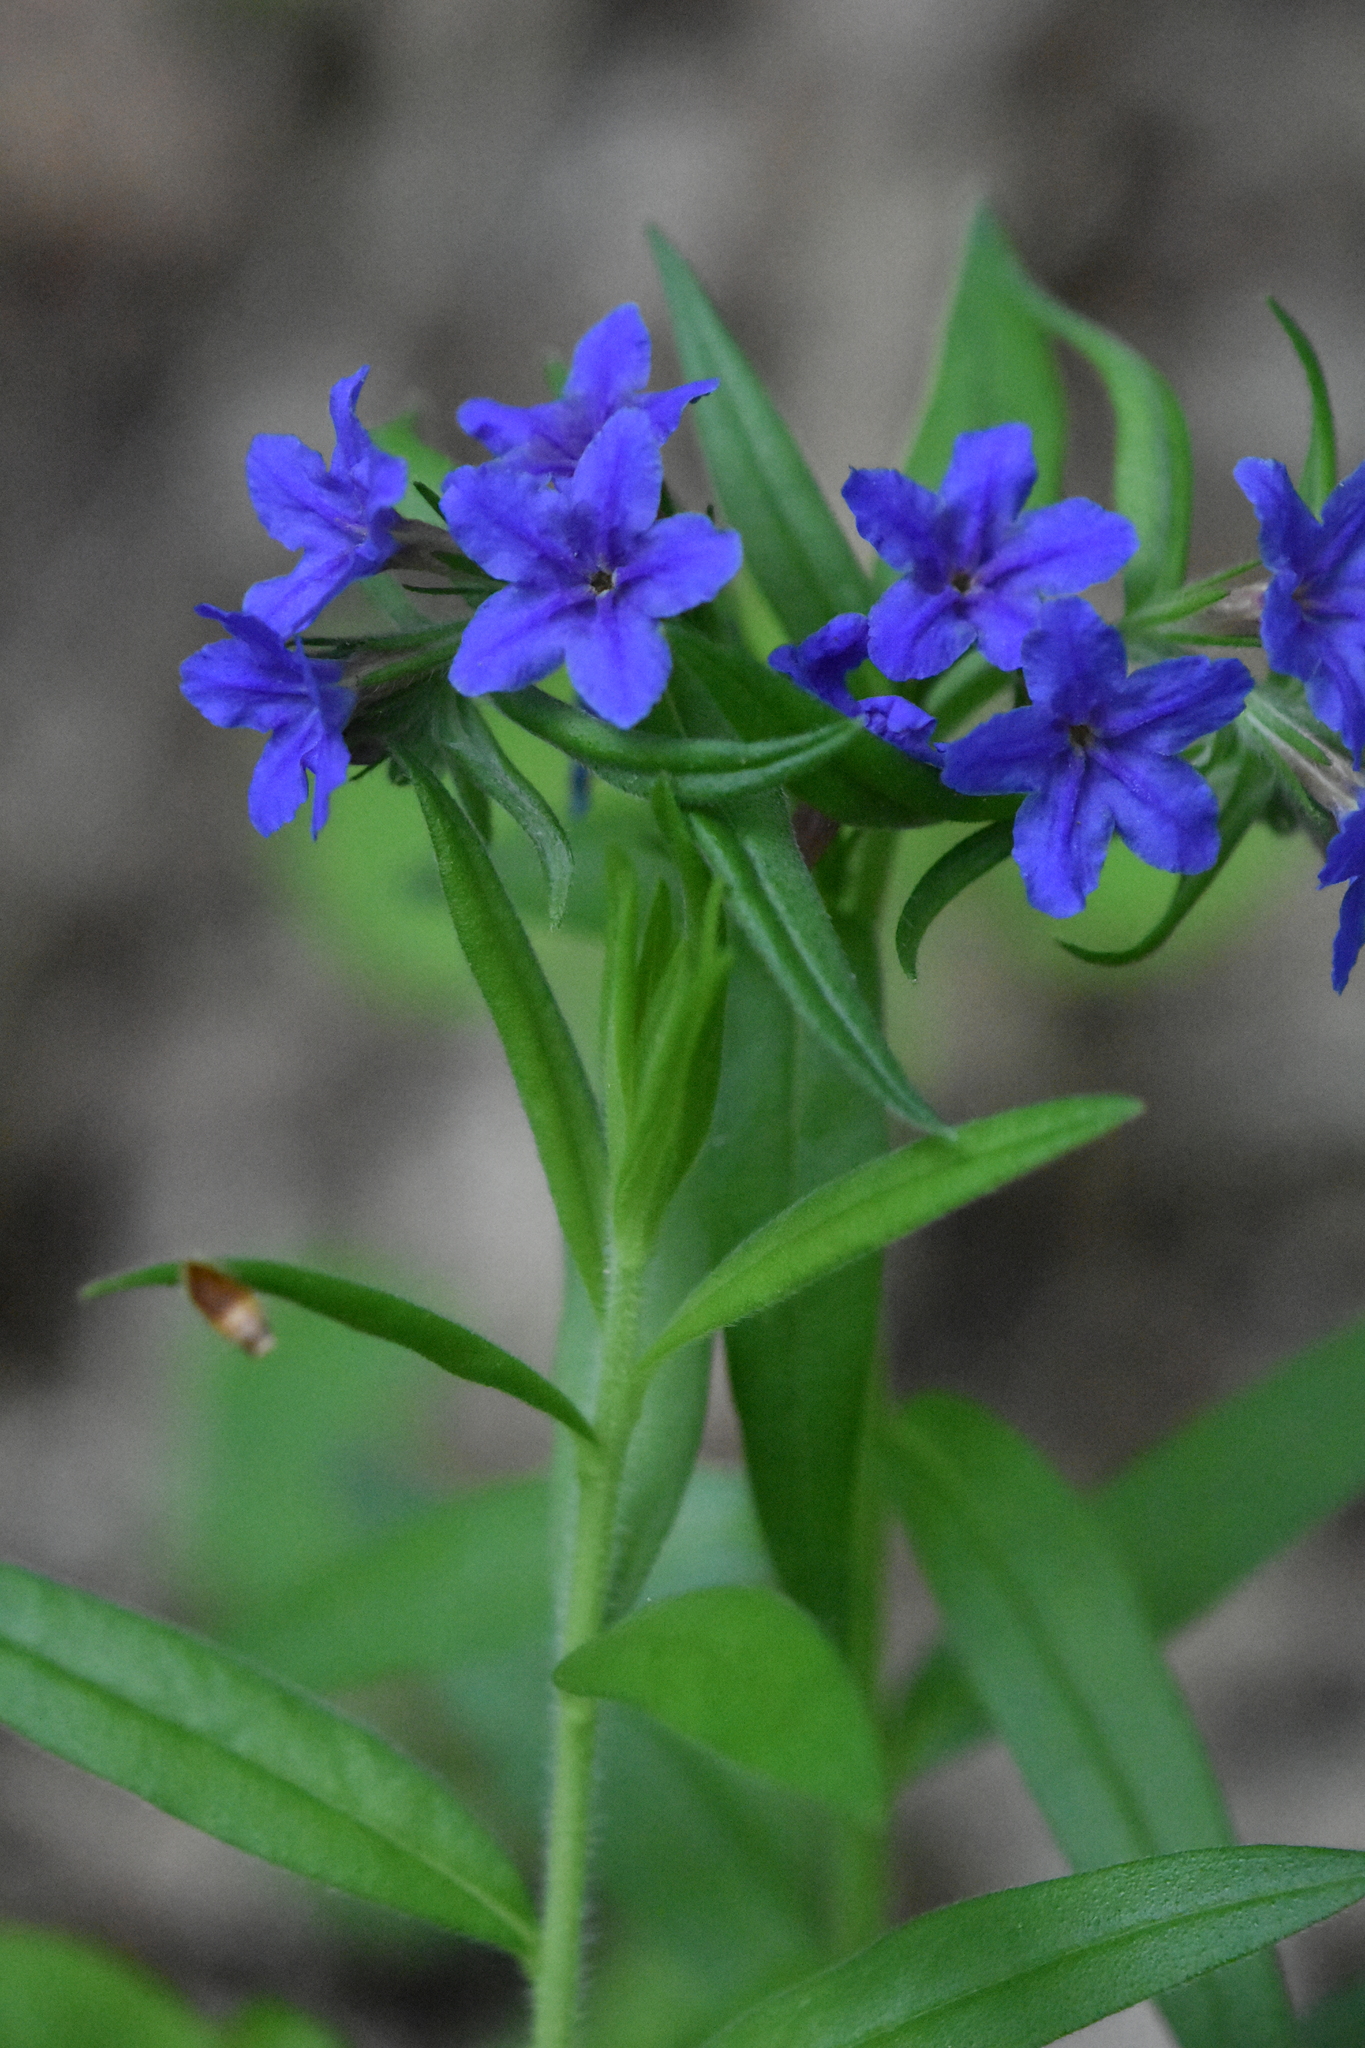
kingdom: Plantae
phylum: Tracheophyta
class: Magnoliopsida
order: Boraginales
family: Boraginaceae
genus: Aegonychon
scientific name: Aegonychon purpurocaeruleum
